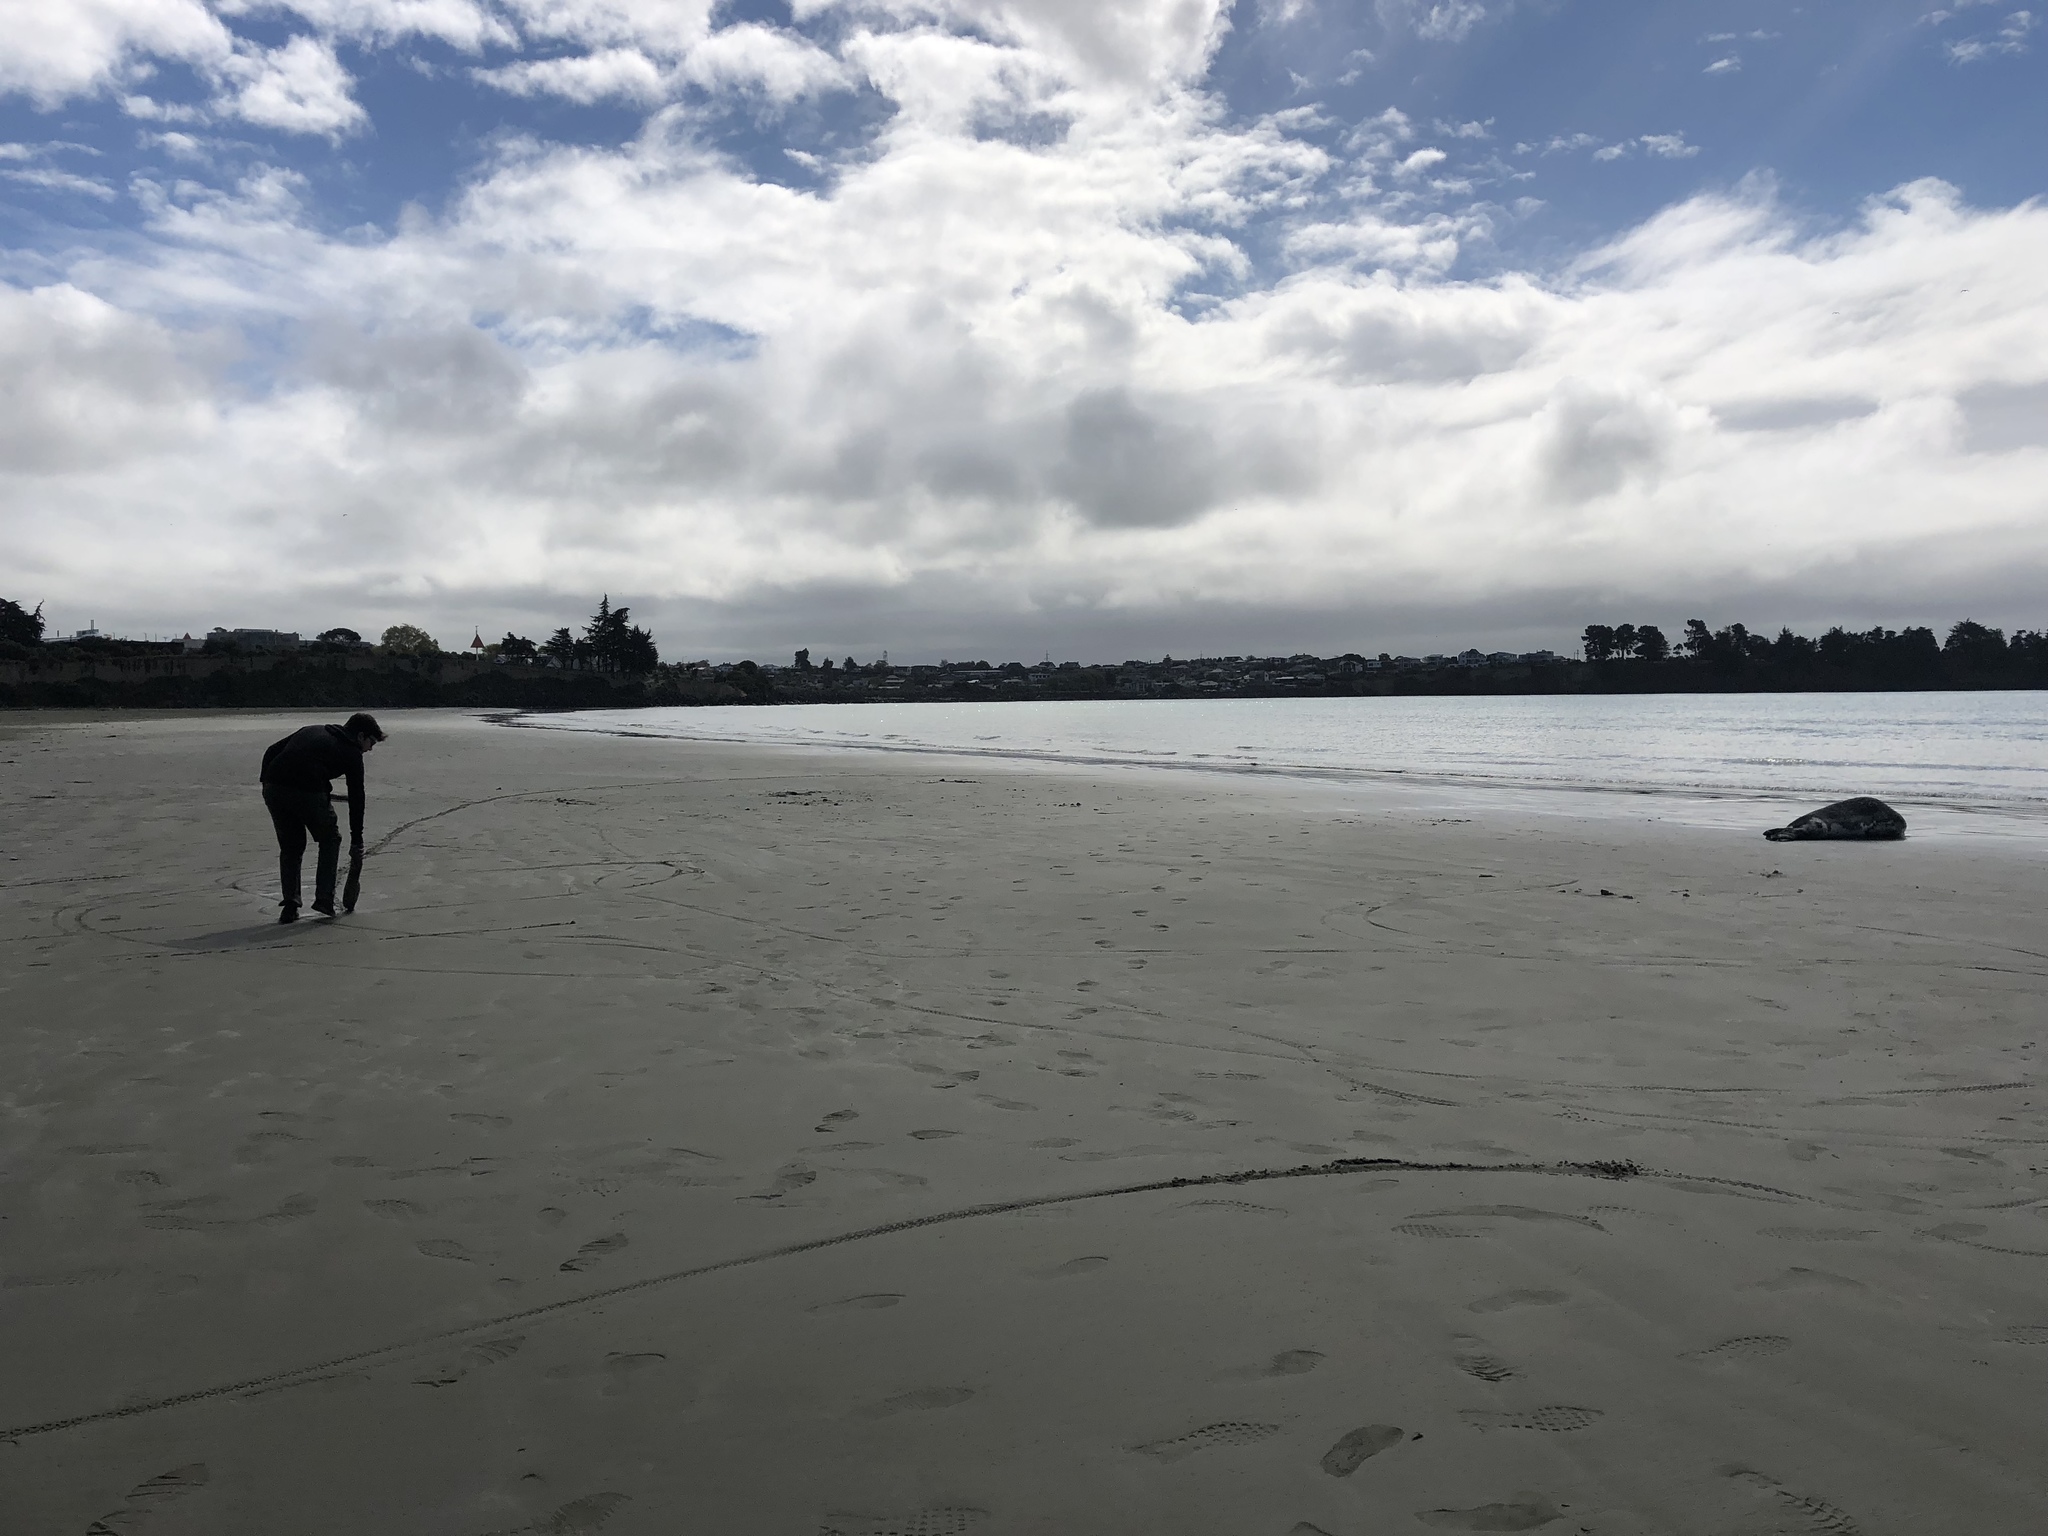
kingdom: Animalia
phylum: Chordata
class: Mammalia
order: Carnivora
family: Phocidae
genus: Hydrurga
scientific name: Hydrurga leptonyx
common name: Leopard seal
